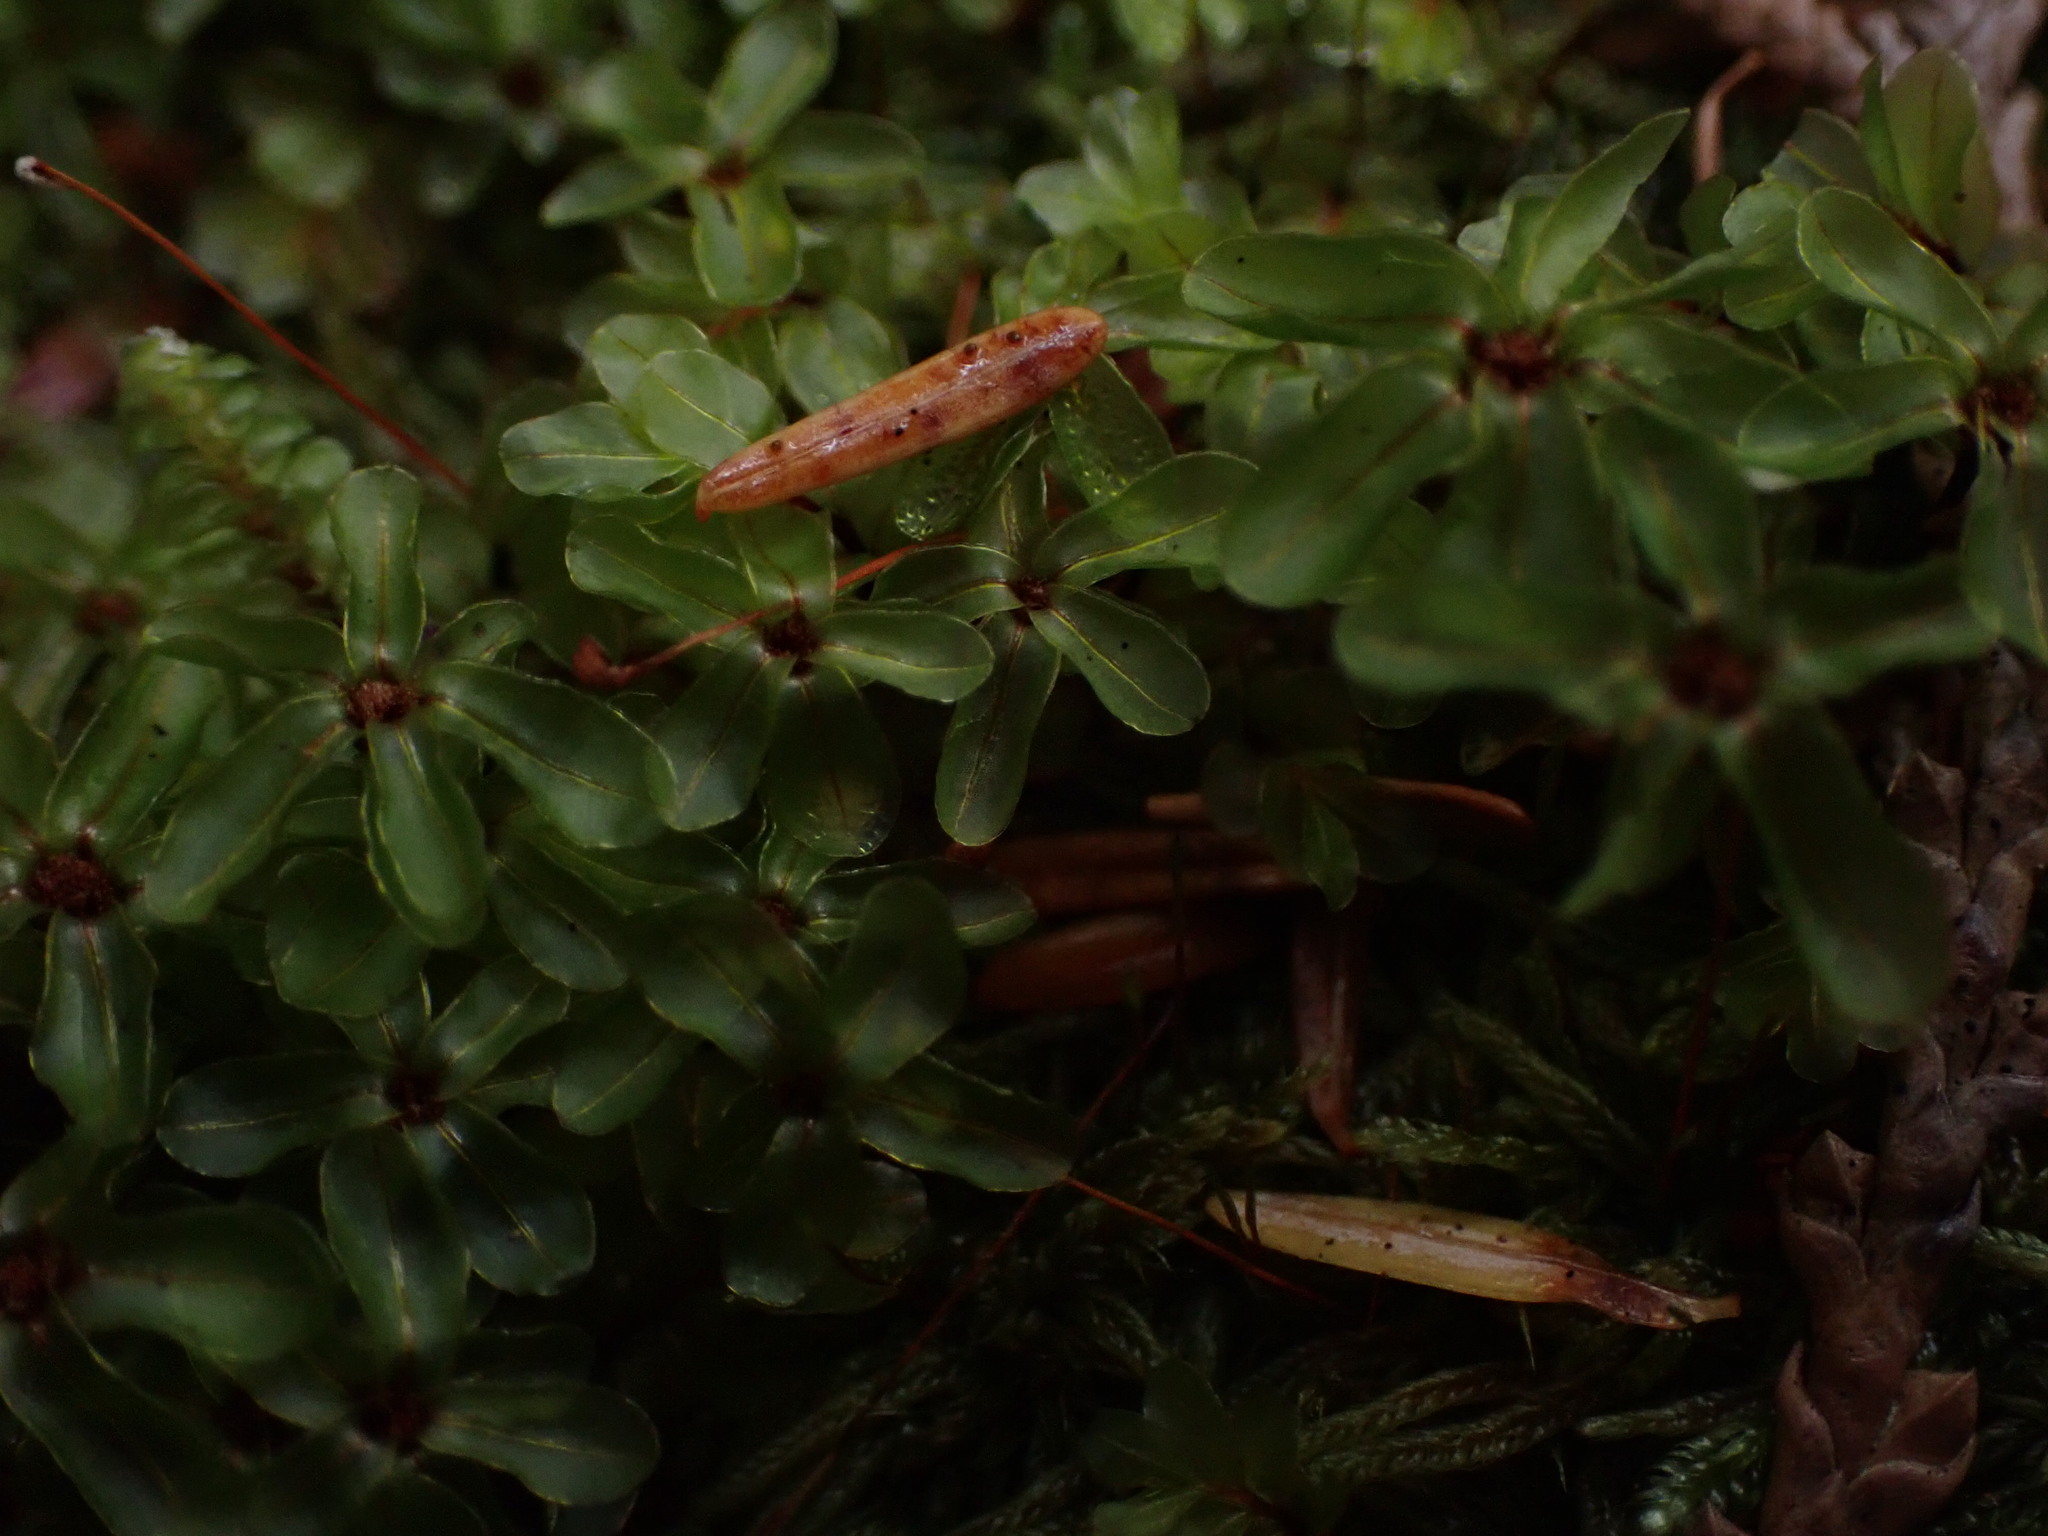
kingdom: Plantae
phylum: Bryophyta
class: Bryopsida
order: Bryales
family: Mniaceae
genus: Rhizomnium
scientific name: Rhizomnium glabrescens
